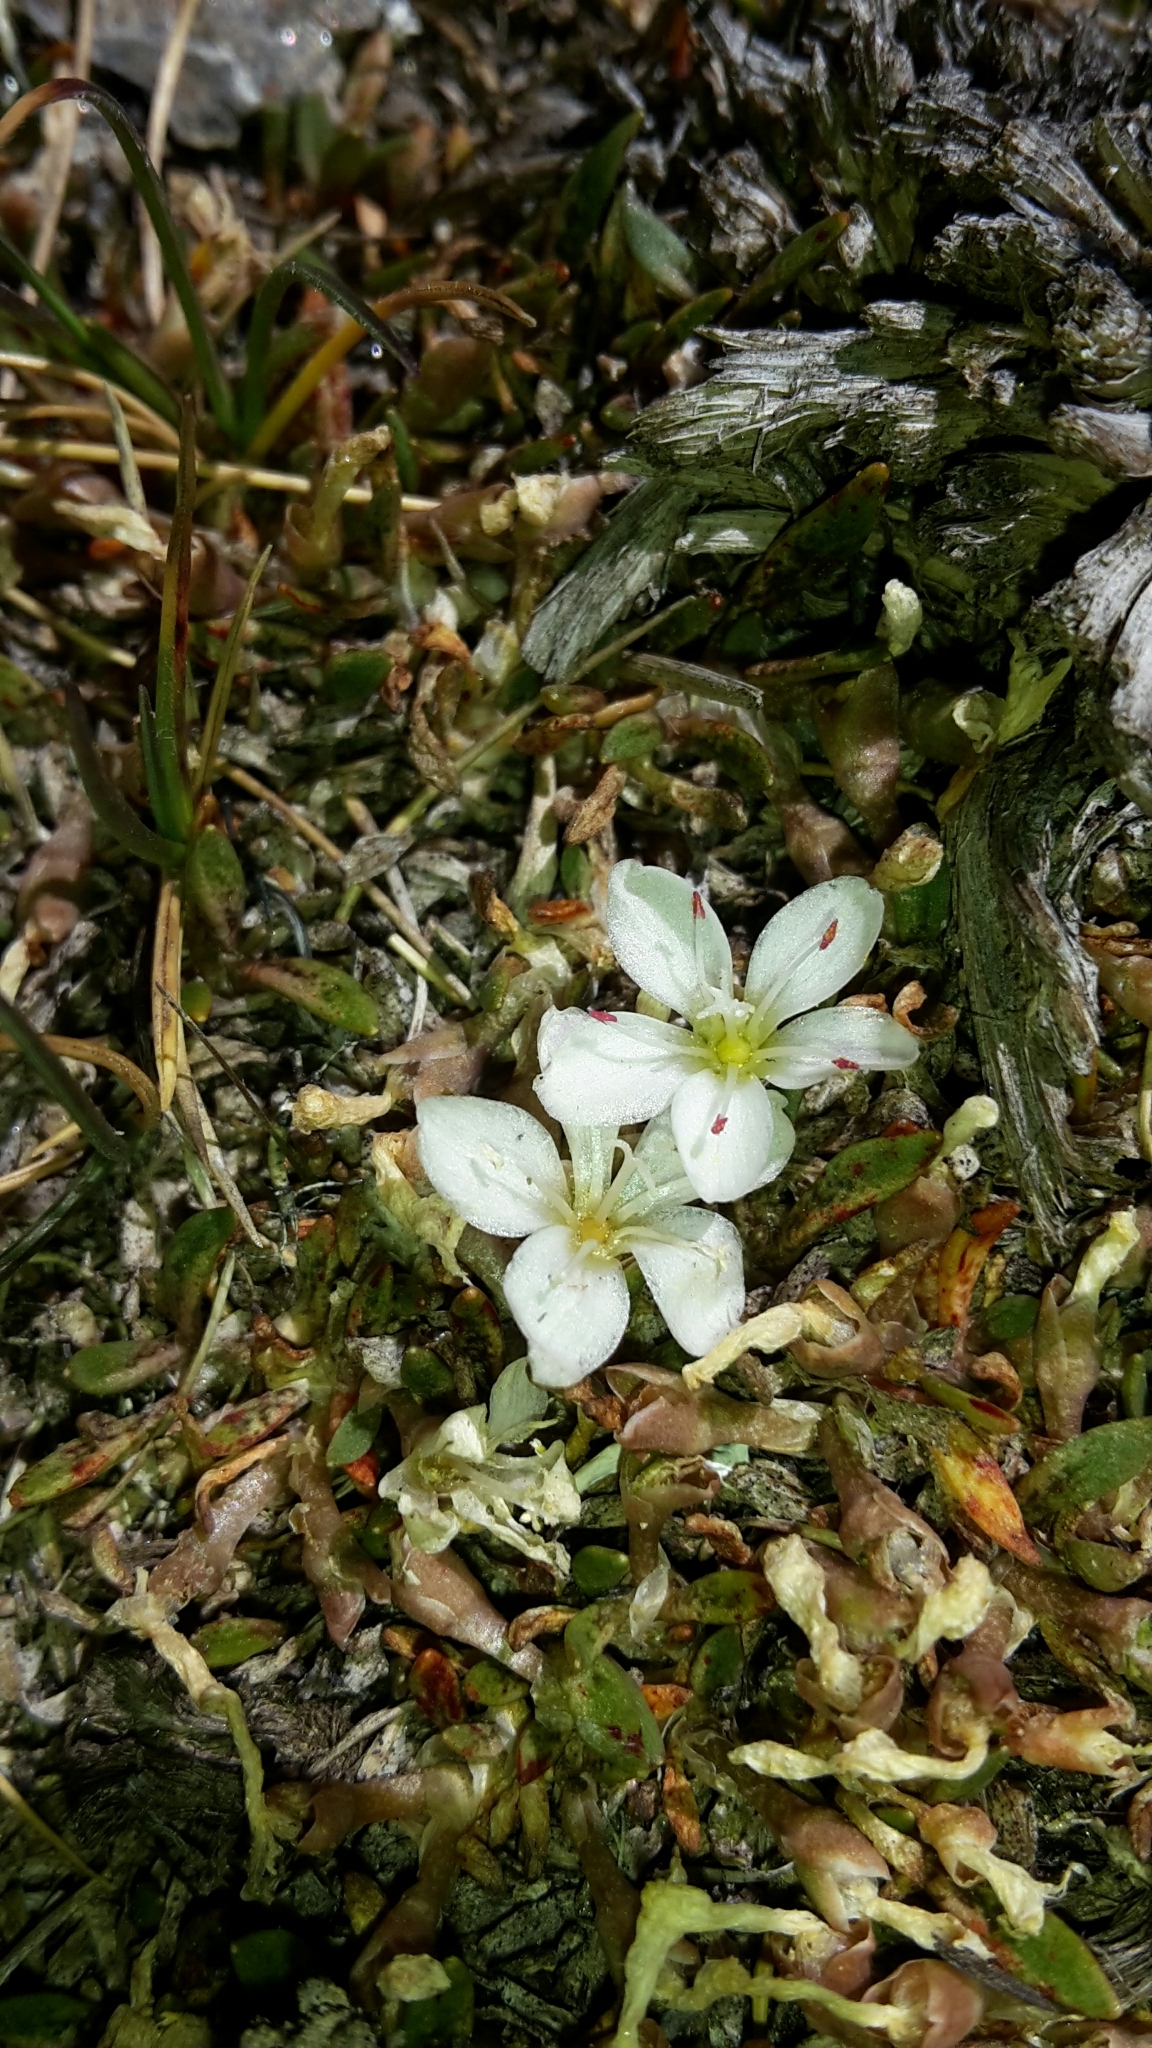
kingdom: Plantae
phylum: Tracheophyta
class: Magnoliopsida
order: Caryophyllales
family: Montiaceae
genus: Montia
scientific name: Montia sessiliflora
